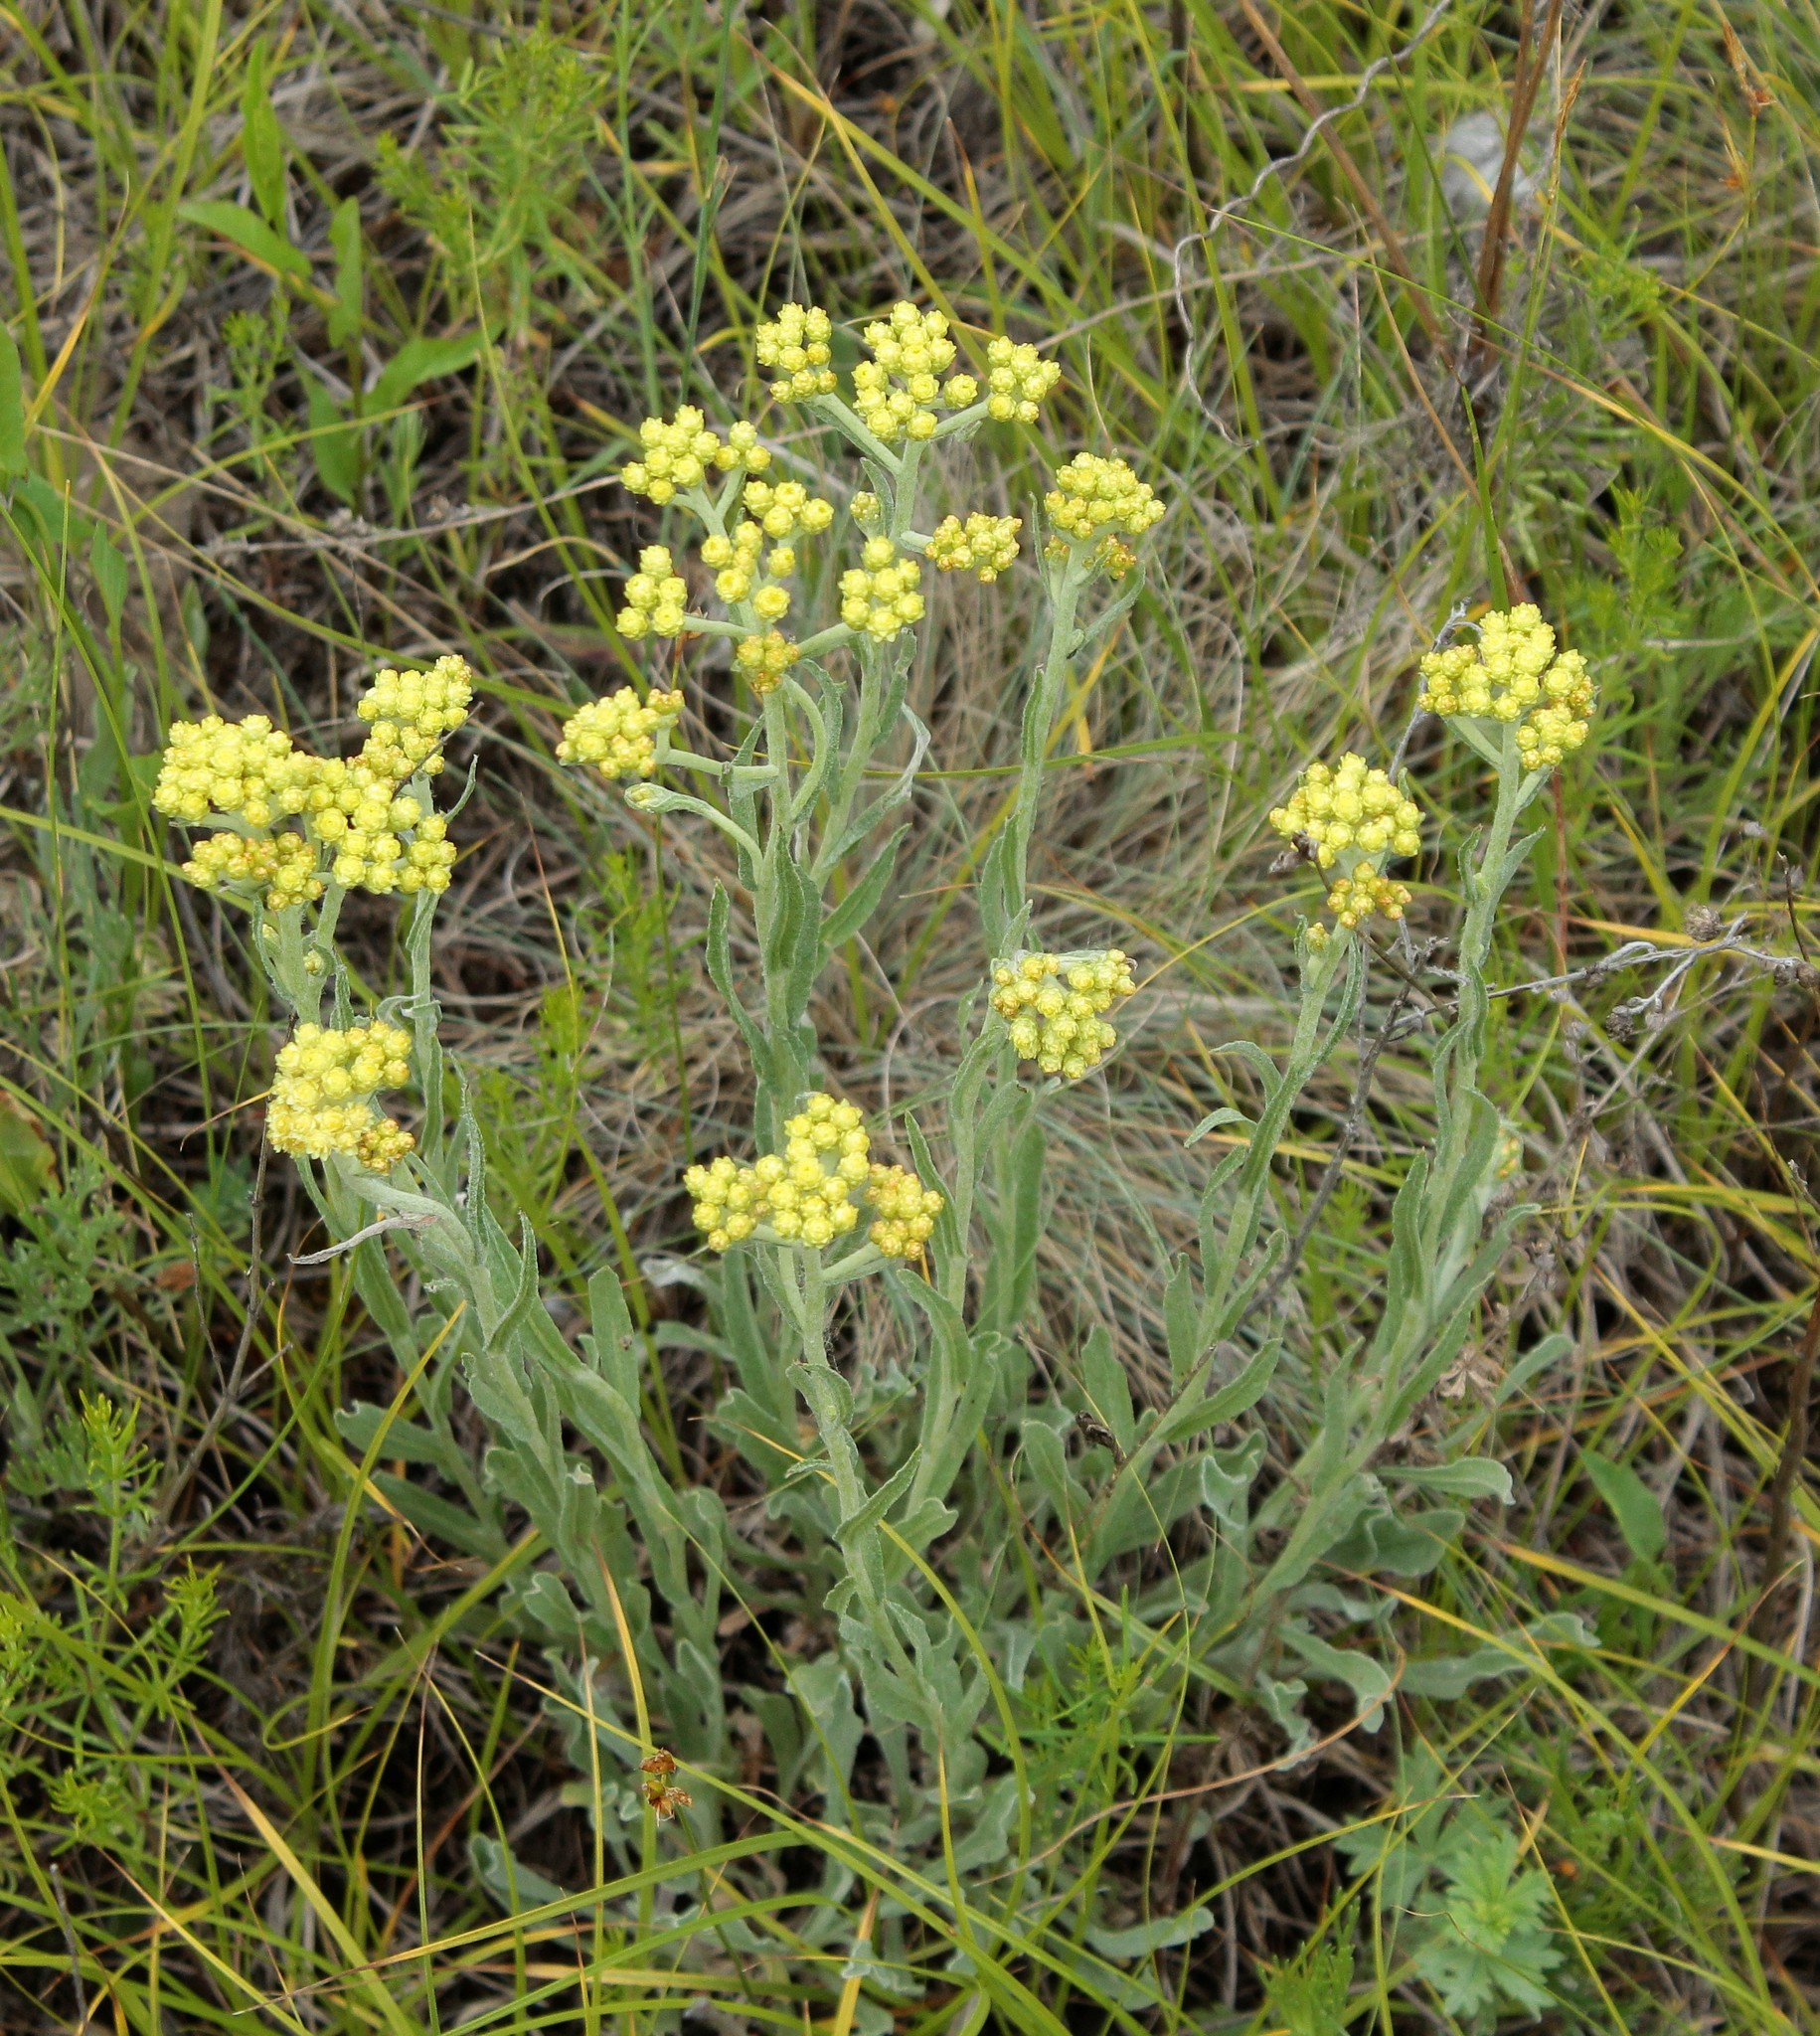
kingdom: Plantae
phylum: Tracheophyta
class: Magnoliopsida
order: Asterales
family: Asteraceae
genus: Helichrysum
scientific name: Helichrysum arenarium
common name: Strawflower
